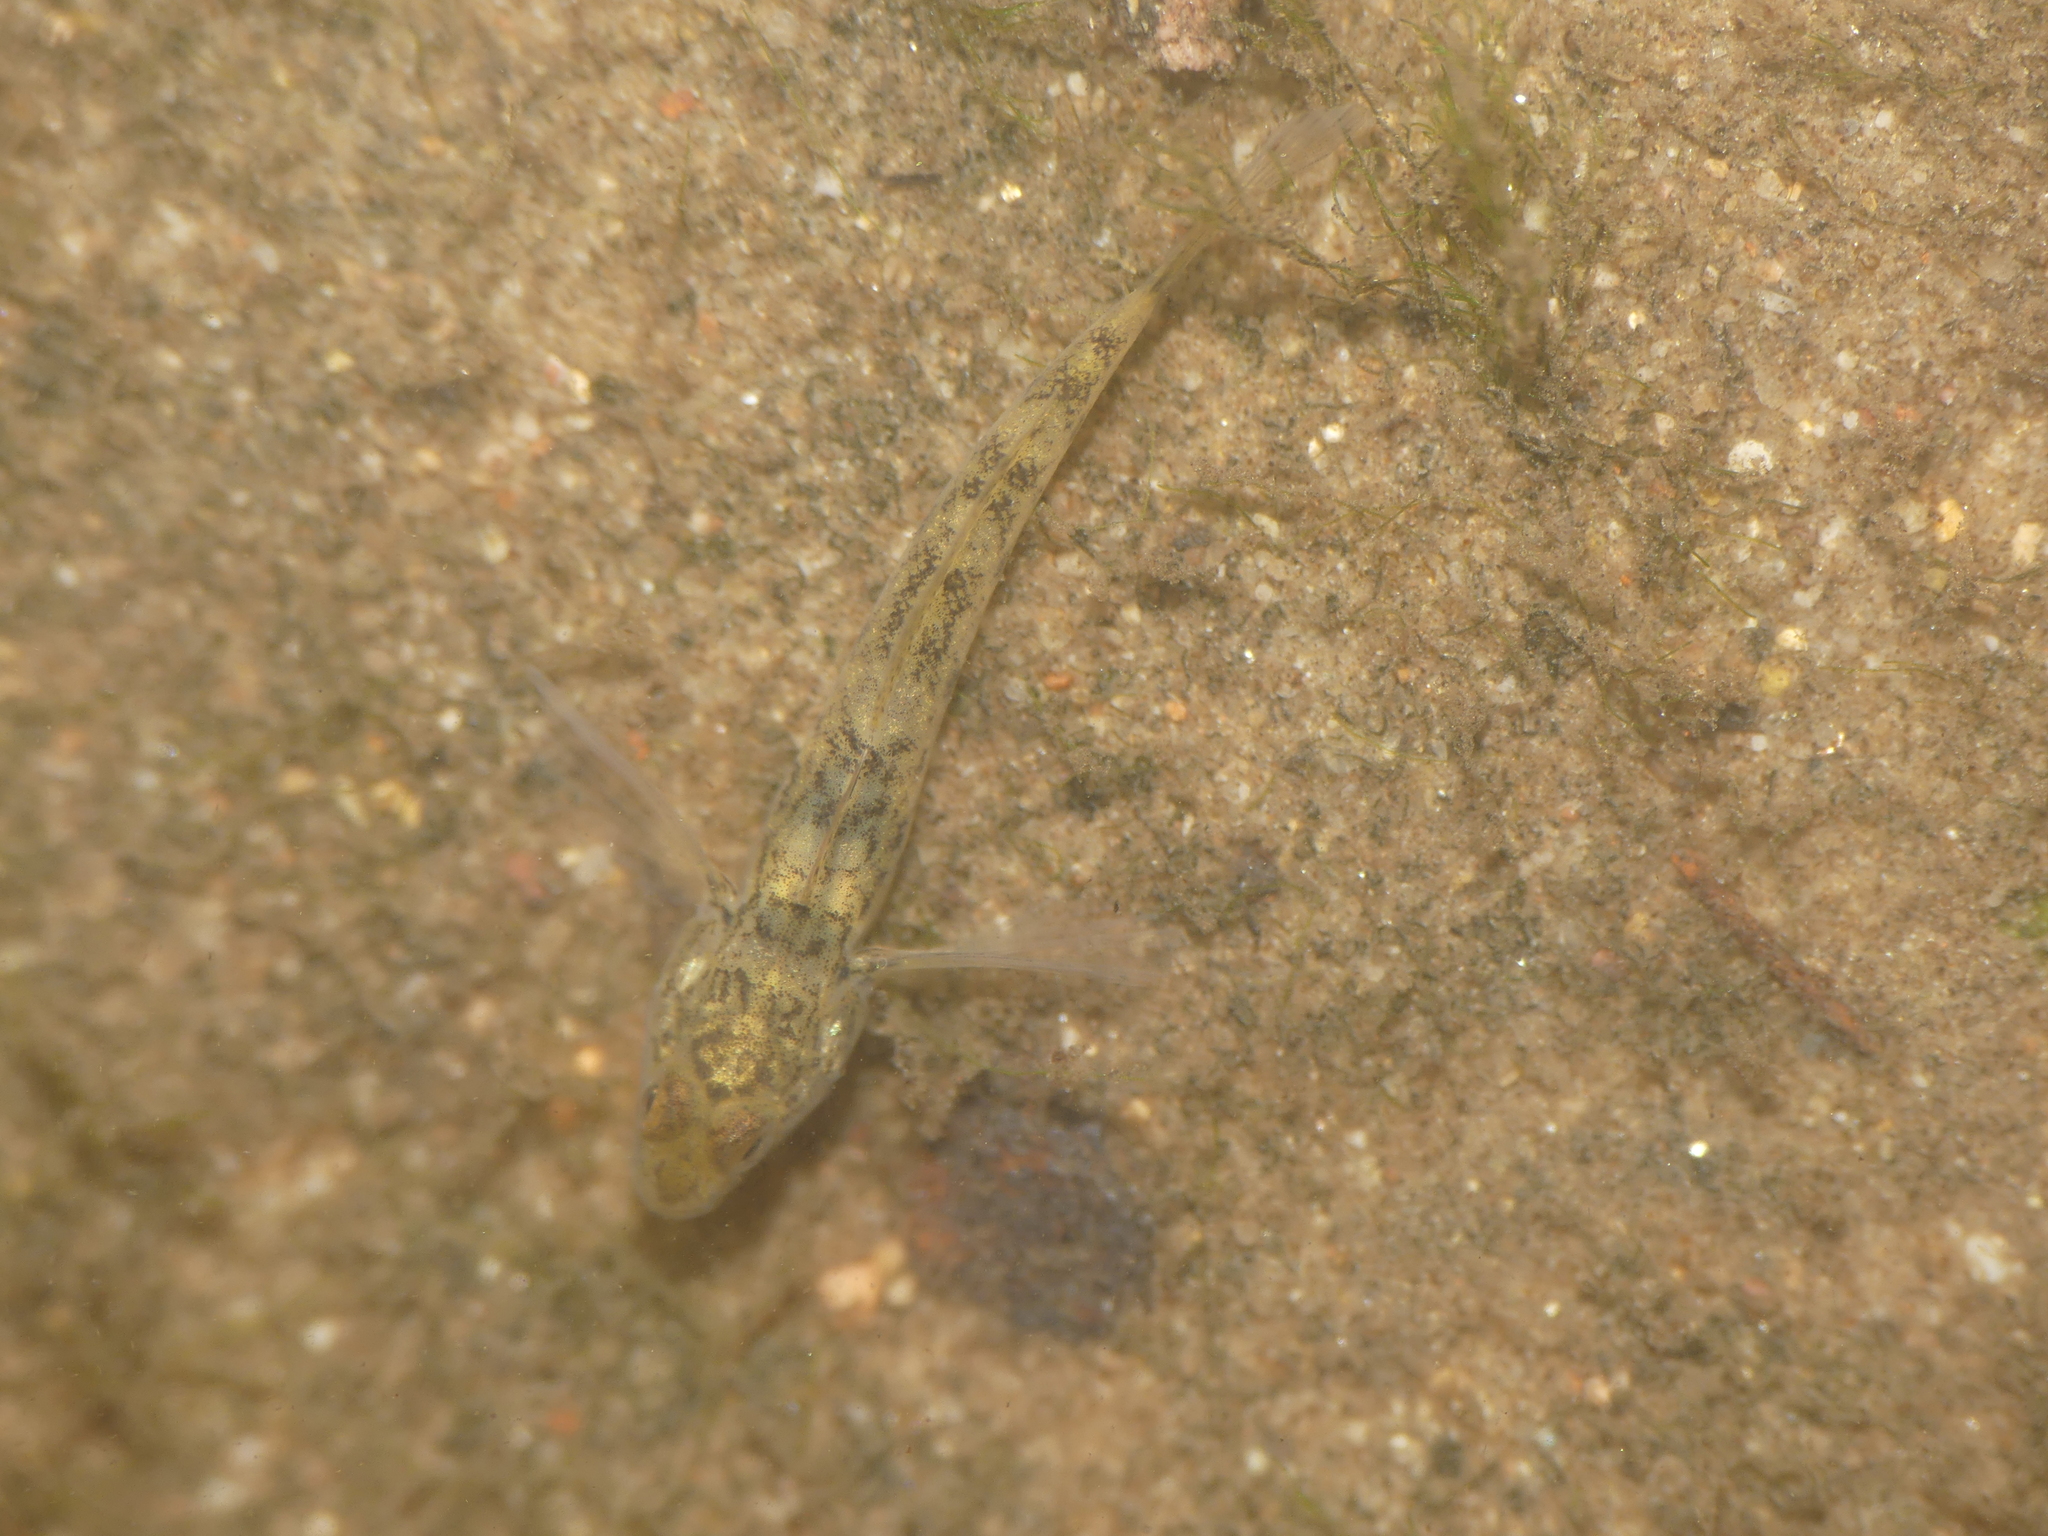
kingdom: Animalia
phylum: Chordata
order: Perciformes
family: Gobiidae
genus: Neogobius
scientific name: Neogobius melanostomus
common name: Round goby
